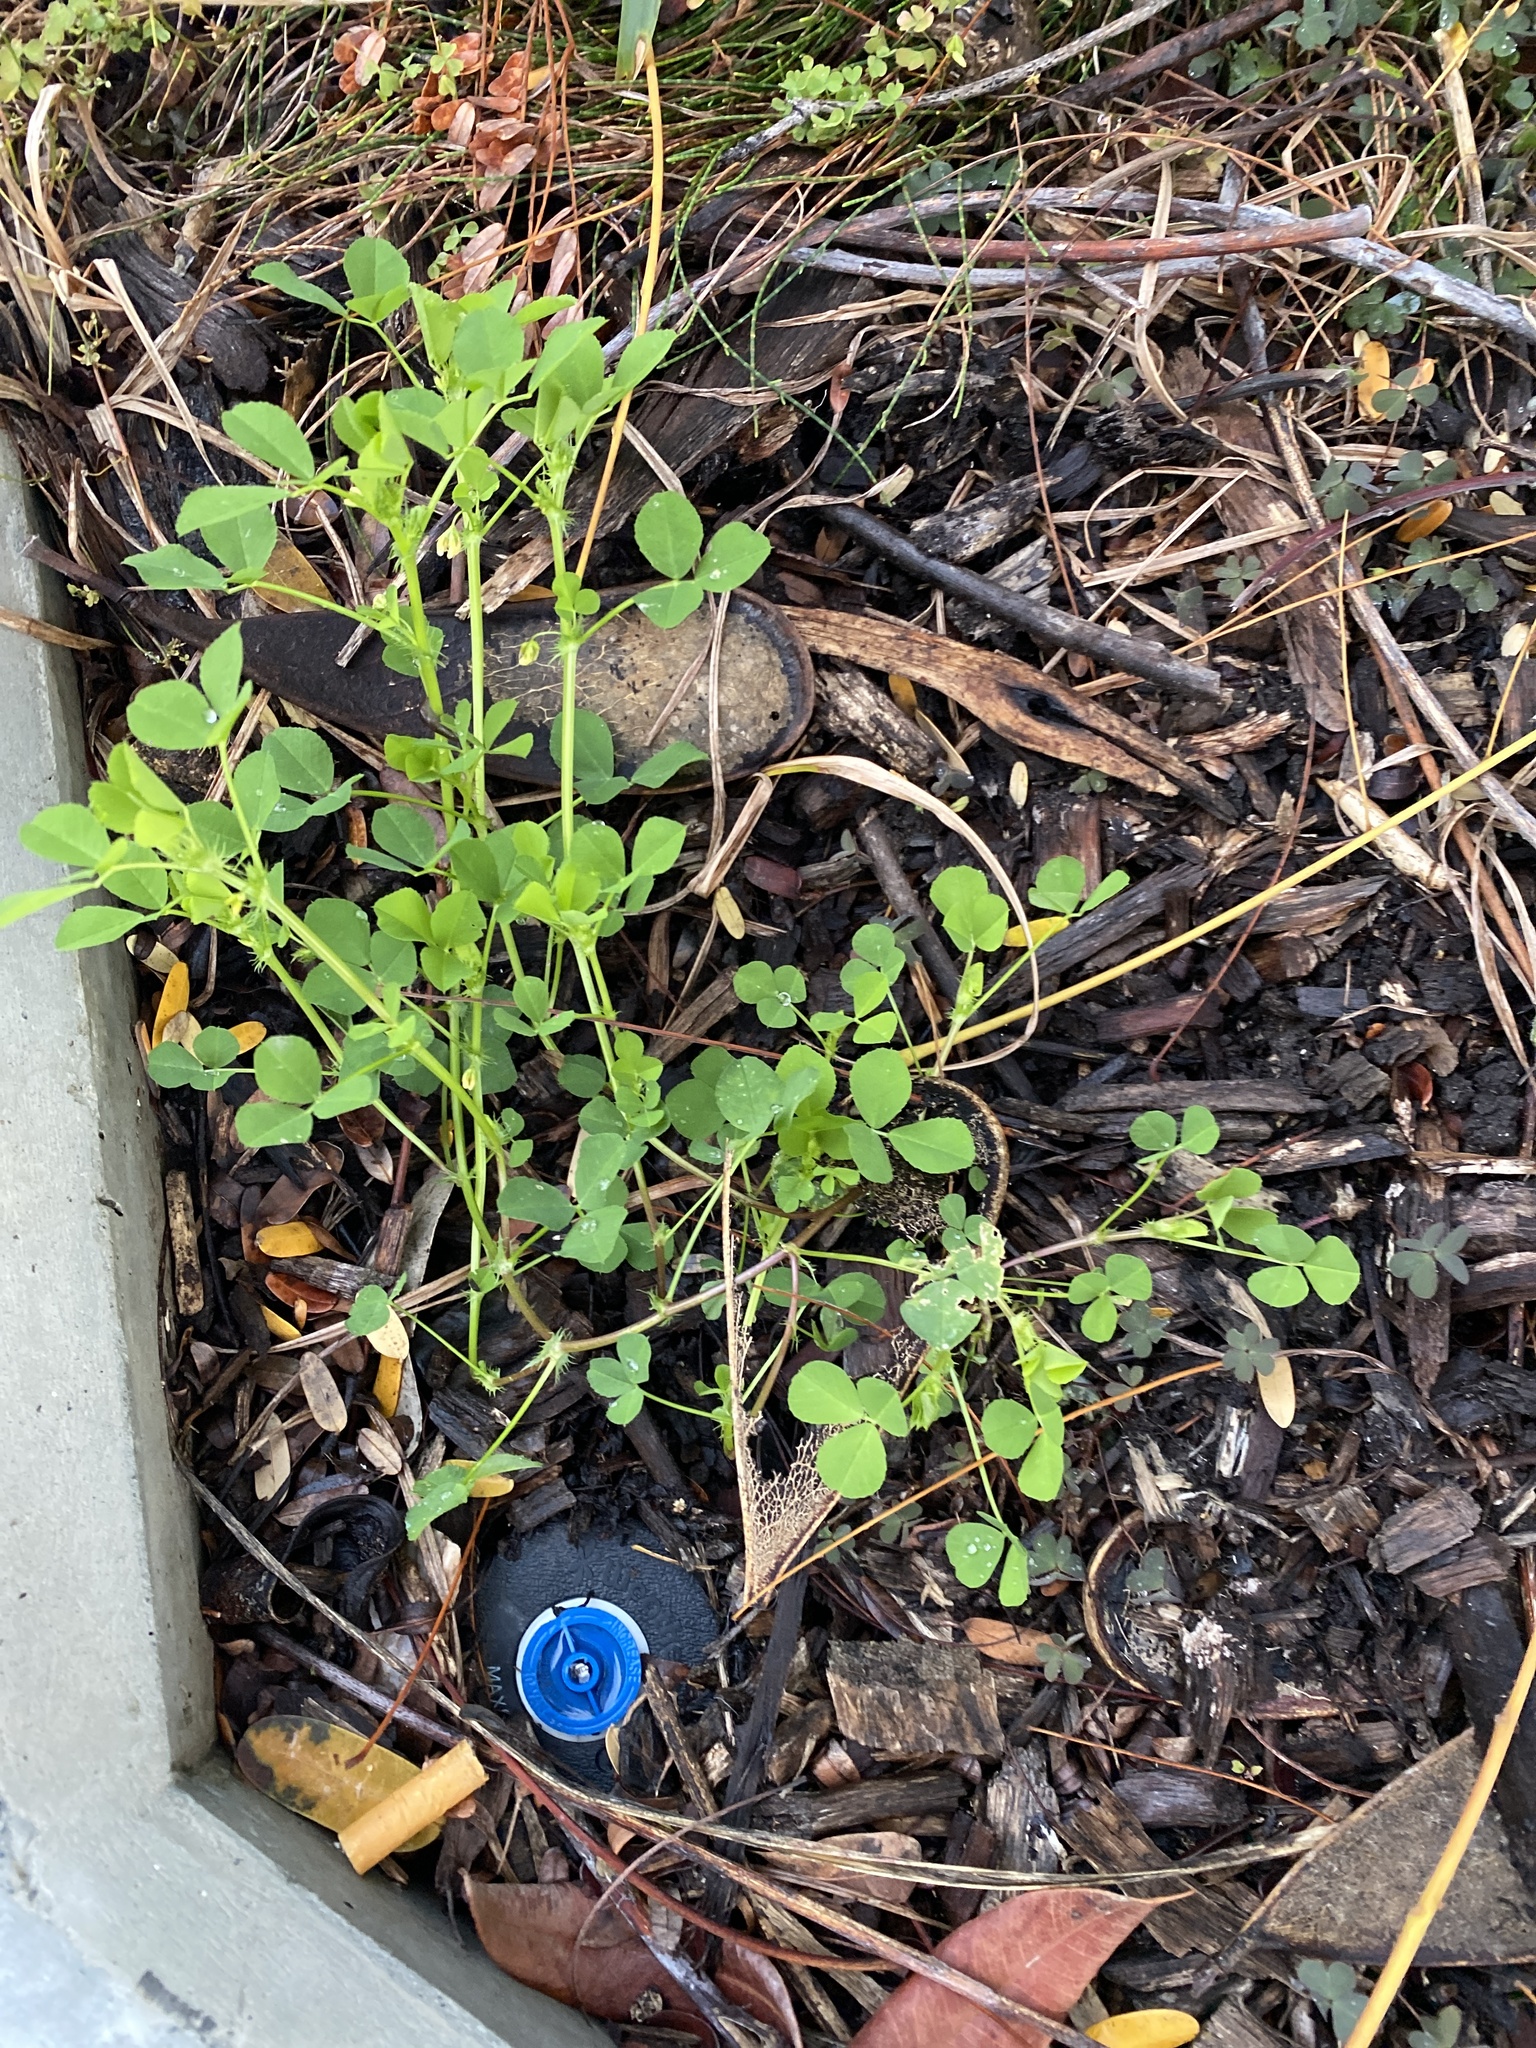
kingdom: Plantae
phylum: Tracheophyta
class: Magnoliopsida
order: Fabales
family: Fabaceae
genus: Medicago
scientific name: Medicago polymorpha
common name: Burclover
